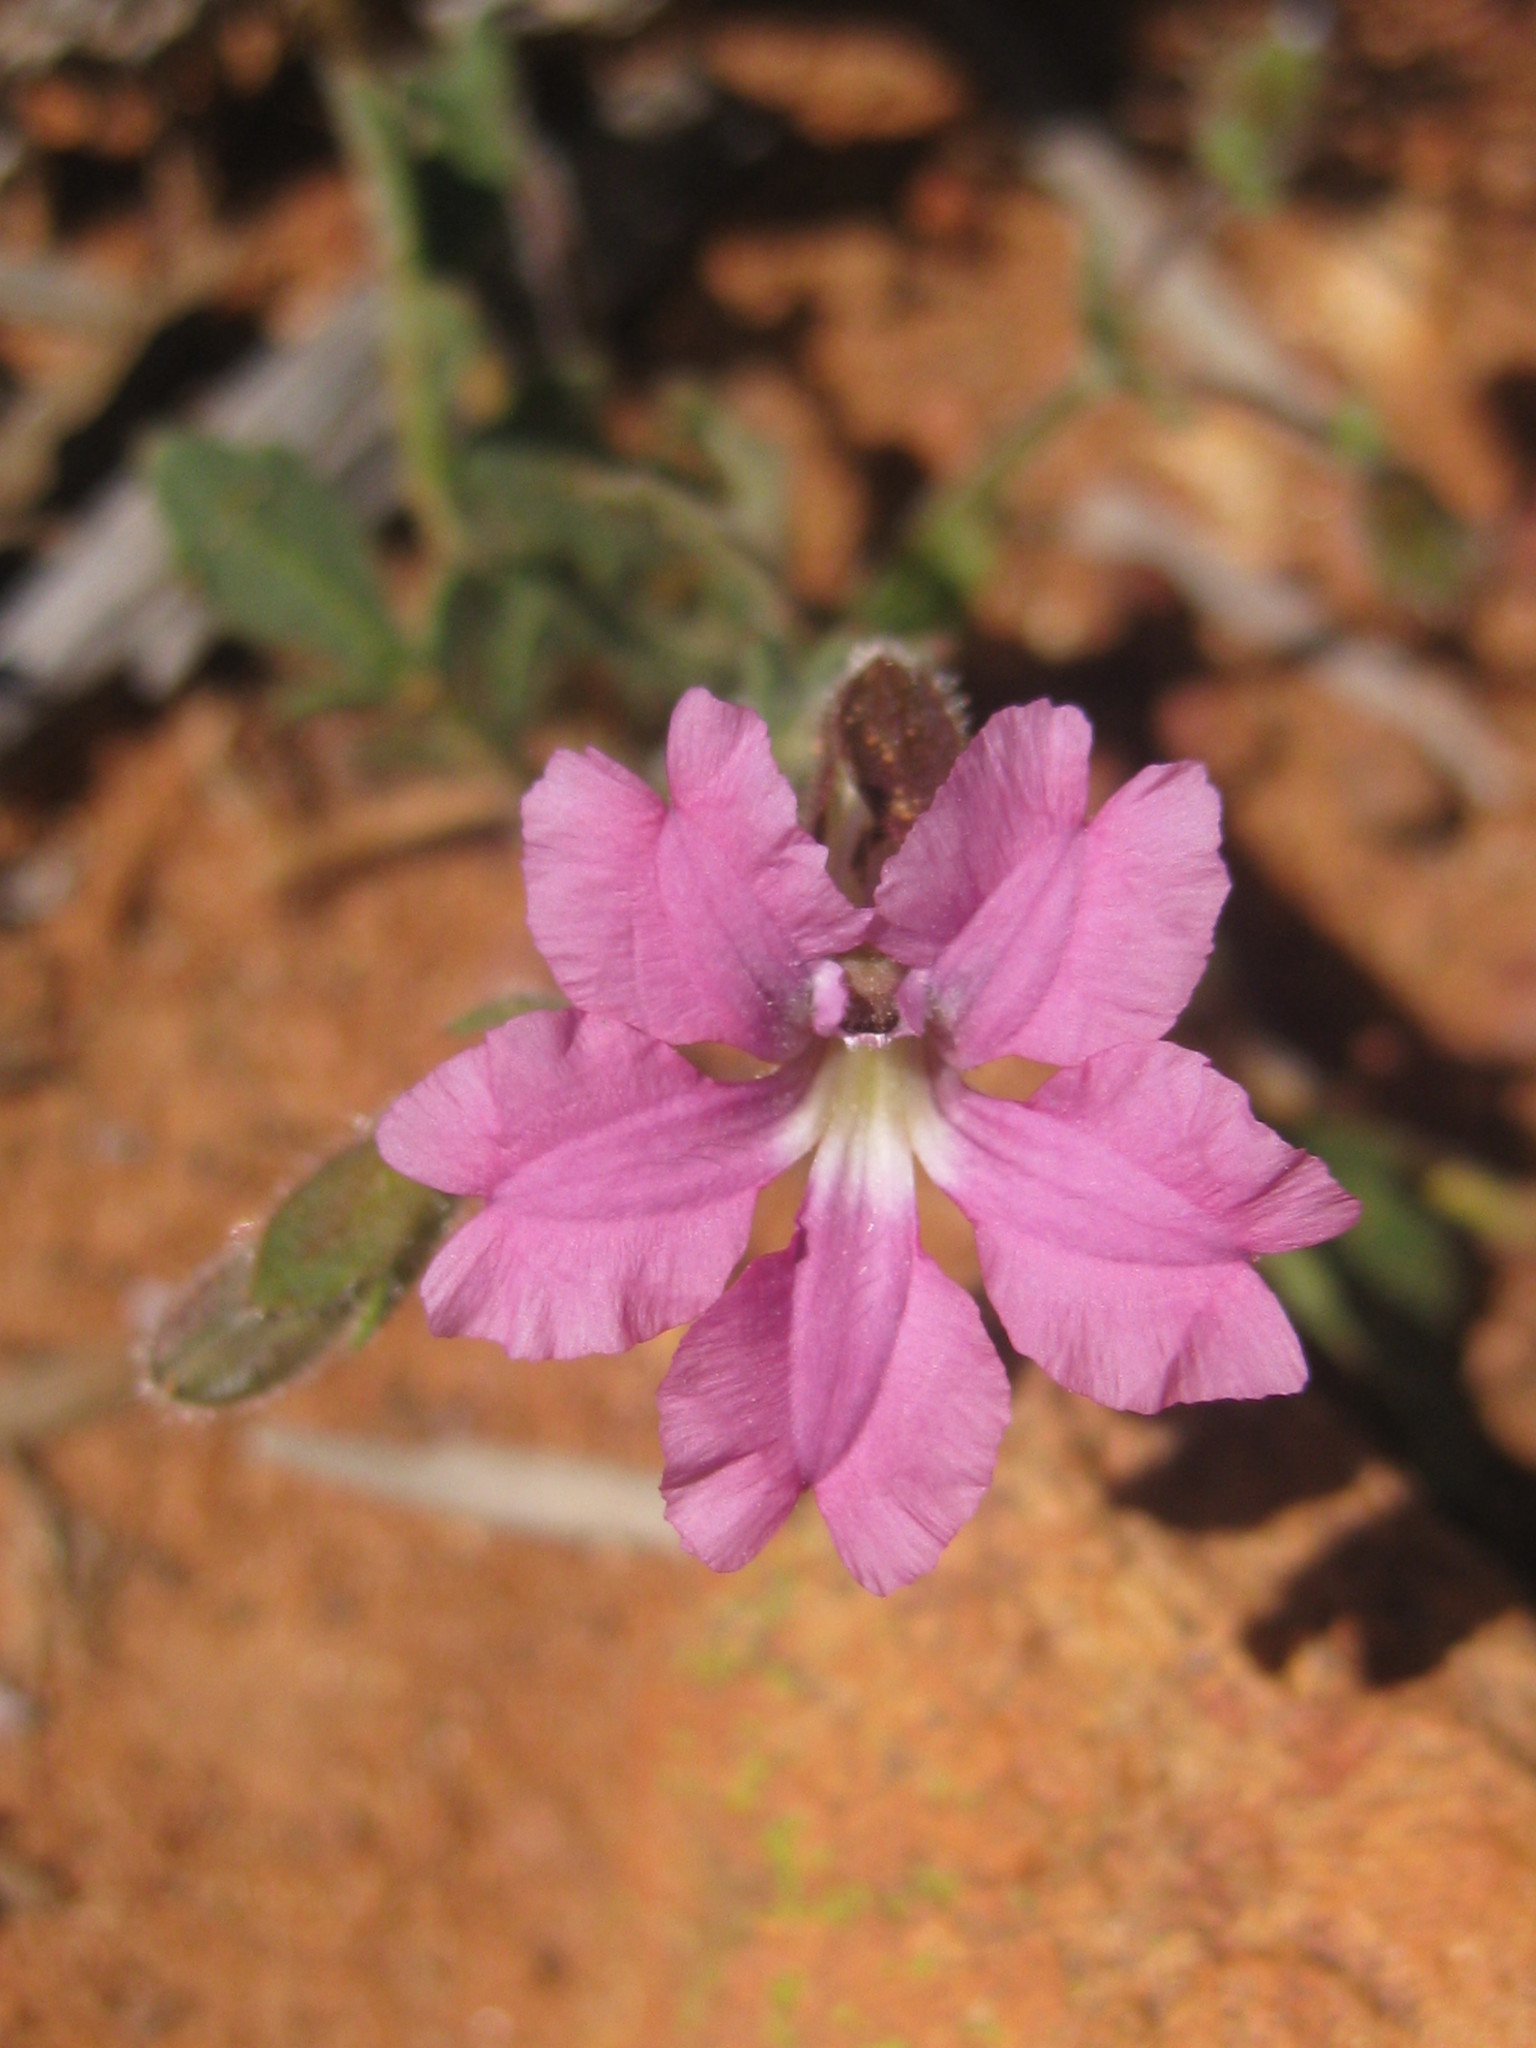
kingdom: Plantae
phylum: Tracheophyta
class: Magnoliopsida
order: Asterales
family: Goodeniaceae
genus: Goodenia
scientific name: Goodenia rosea
